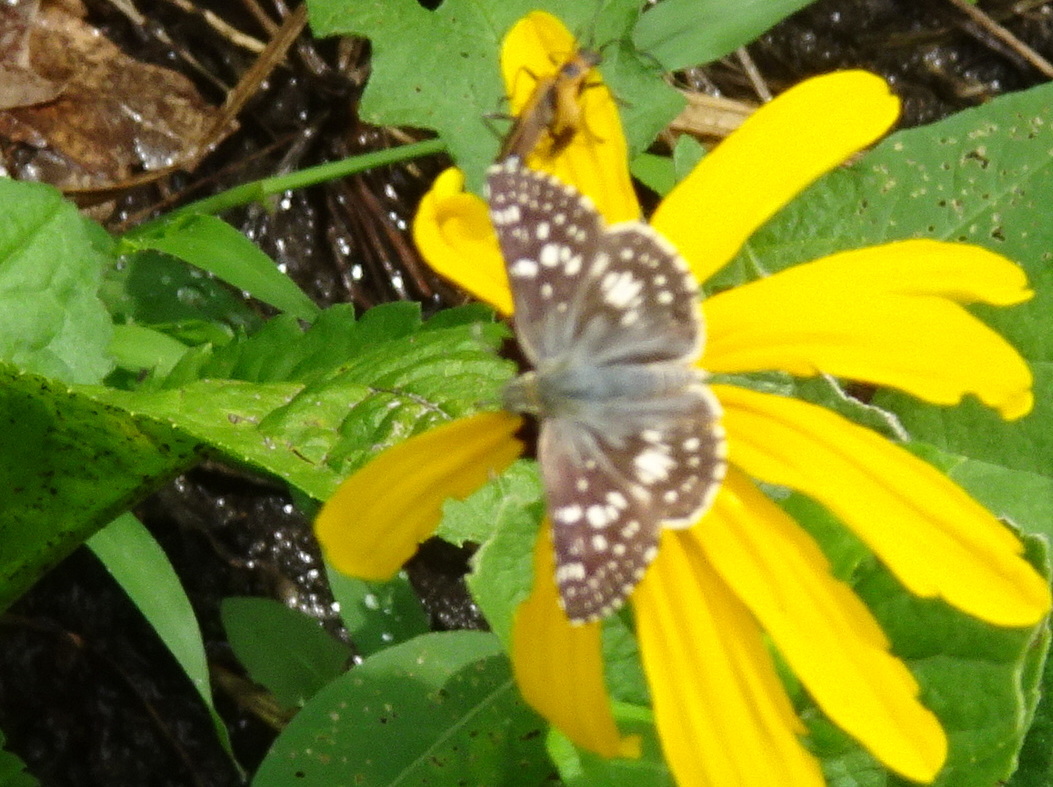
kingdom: Animalia
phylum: Arthropoda
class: Insecta
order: Lepidoptera
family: Hesperiidae
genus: Burnsius
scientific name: Burnsius communis
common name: Common checkered-skipper
